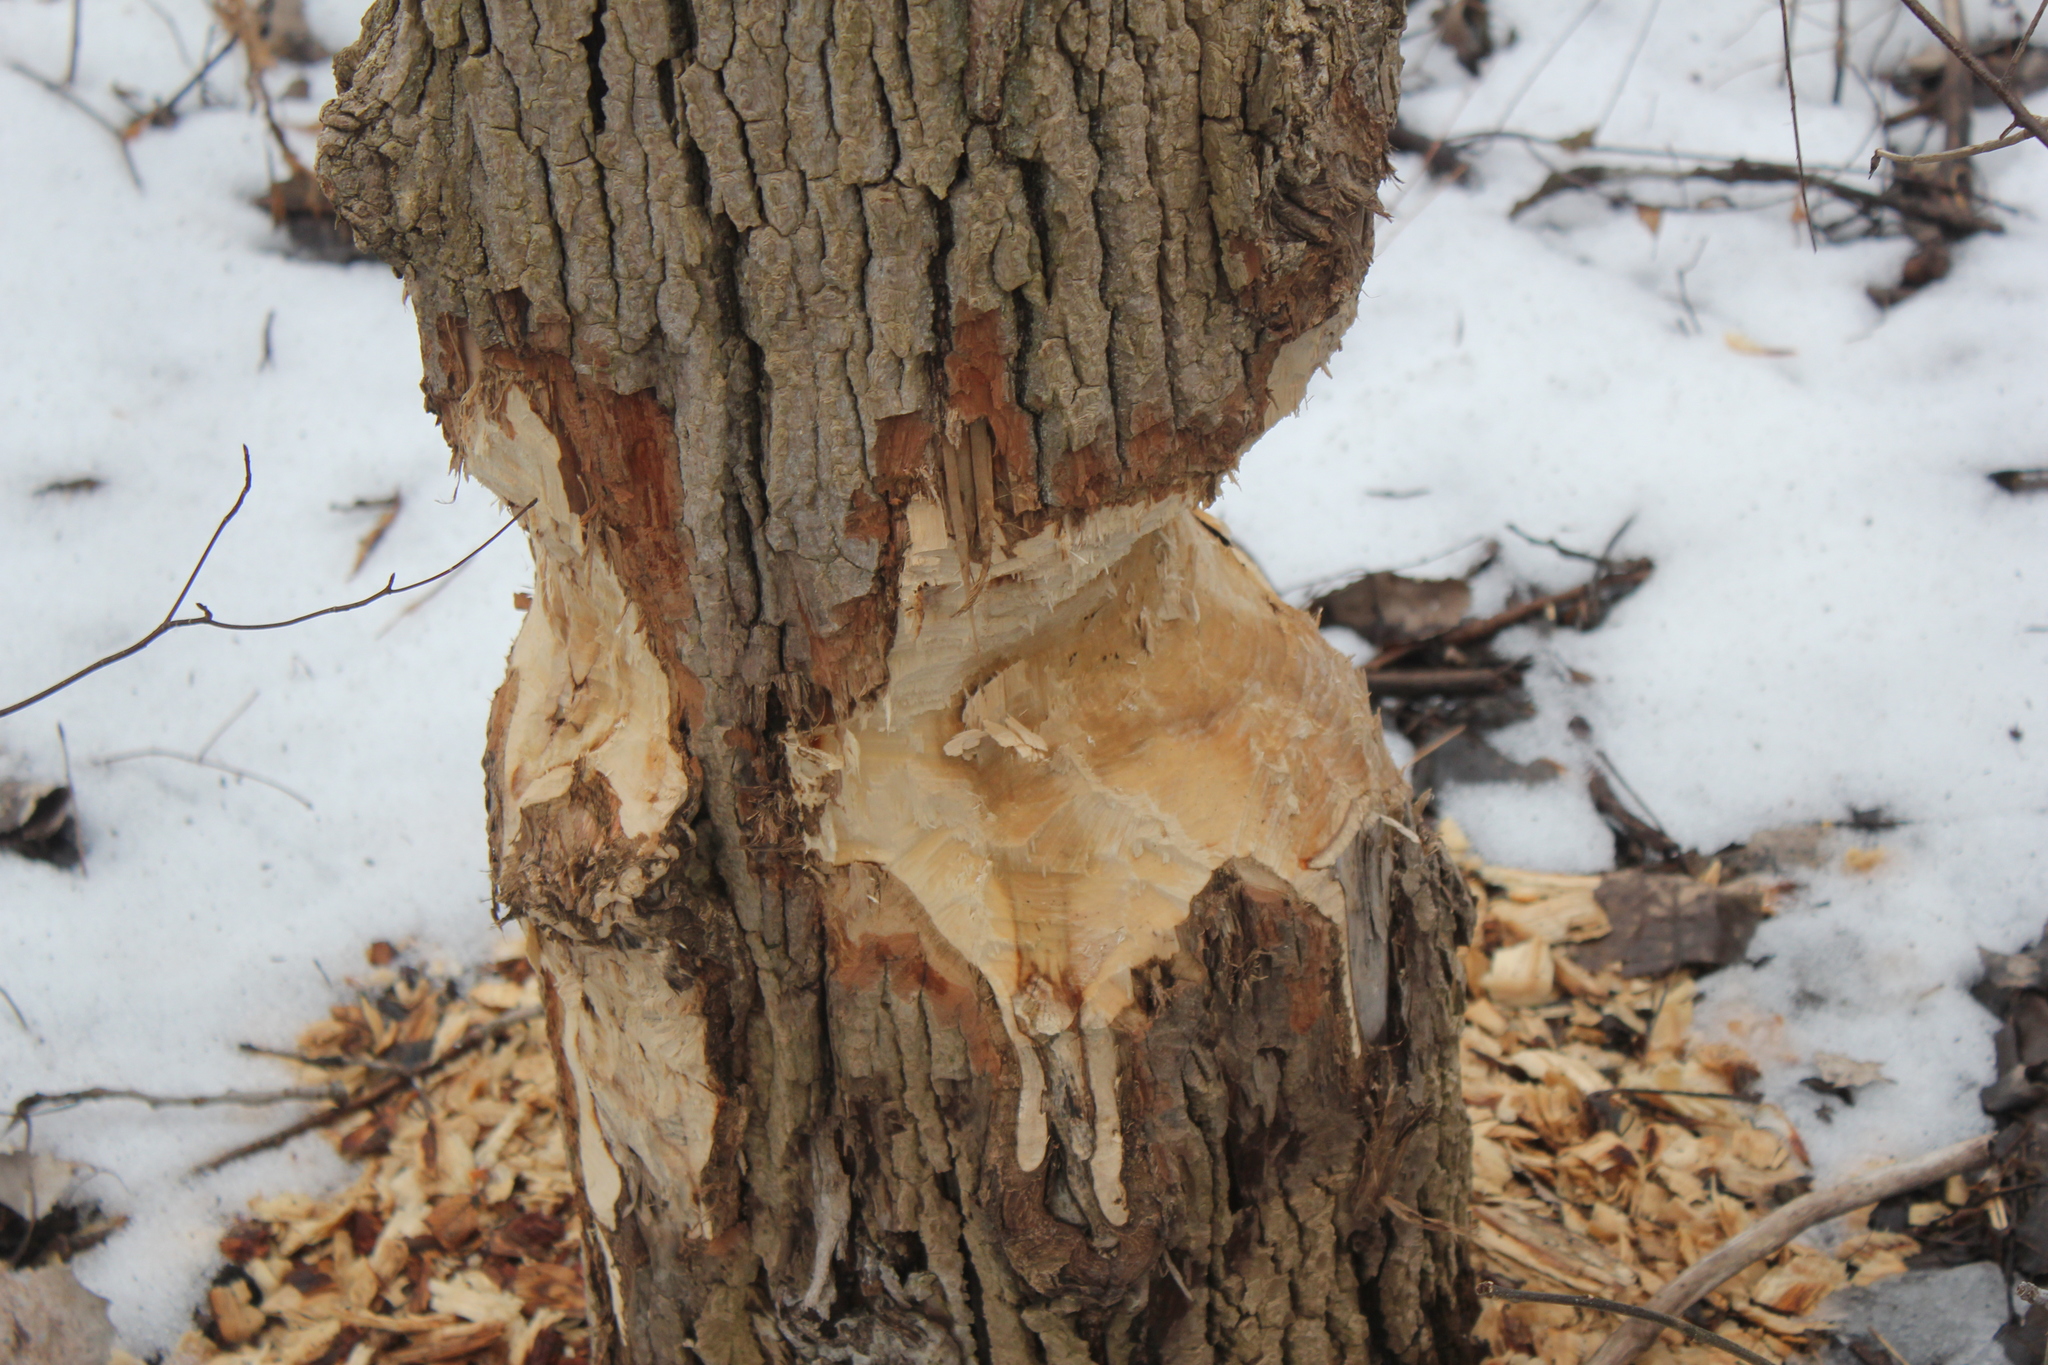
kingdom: Animalia
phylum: Chordata
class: Mammalia
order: Rodentia
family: Castoridae
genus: Castor
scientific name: Castor canadensis
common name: American beaver
